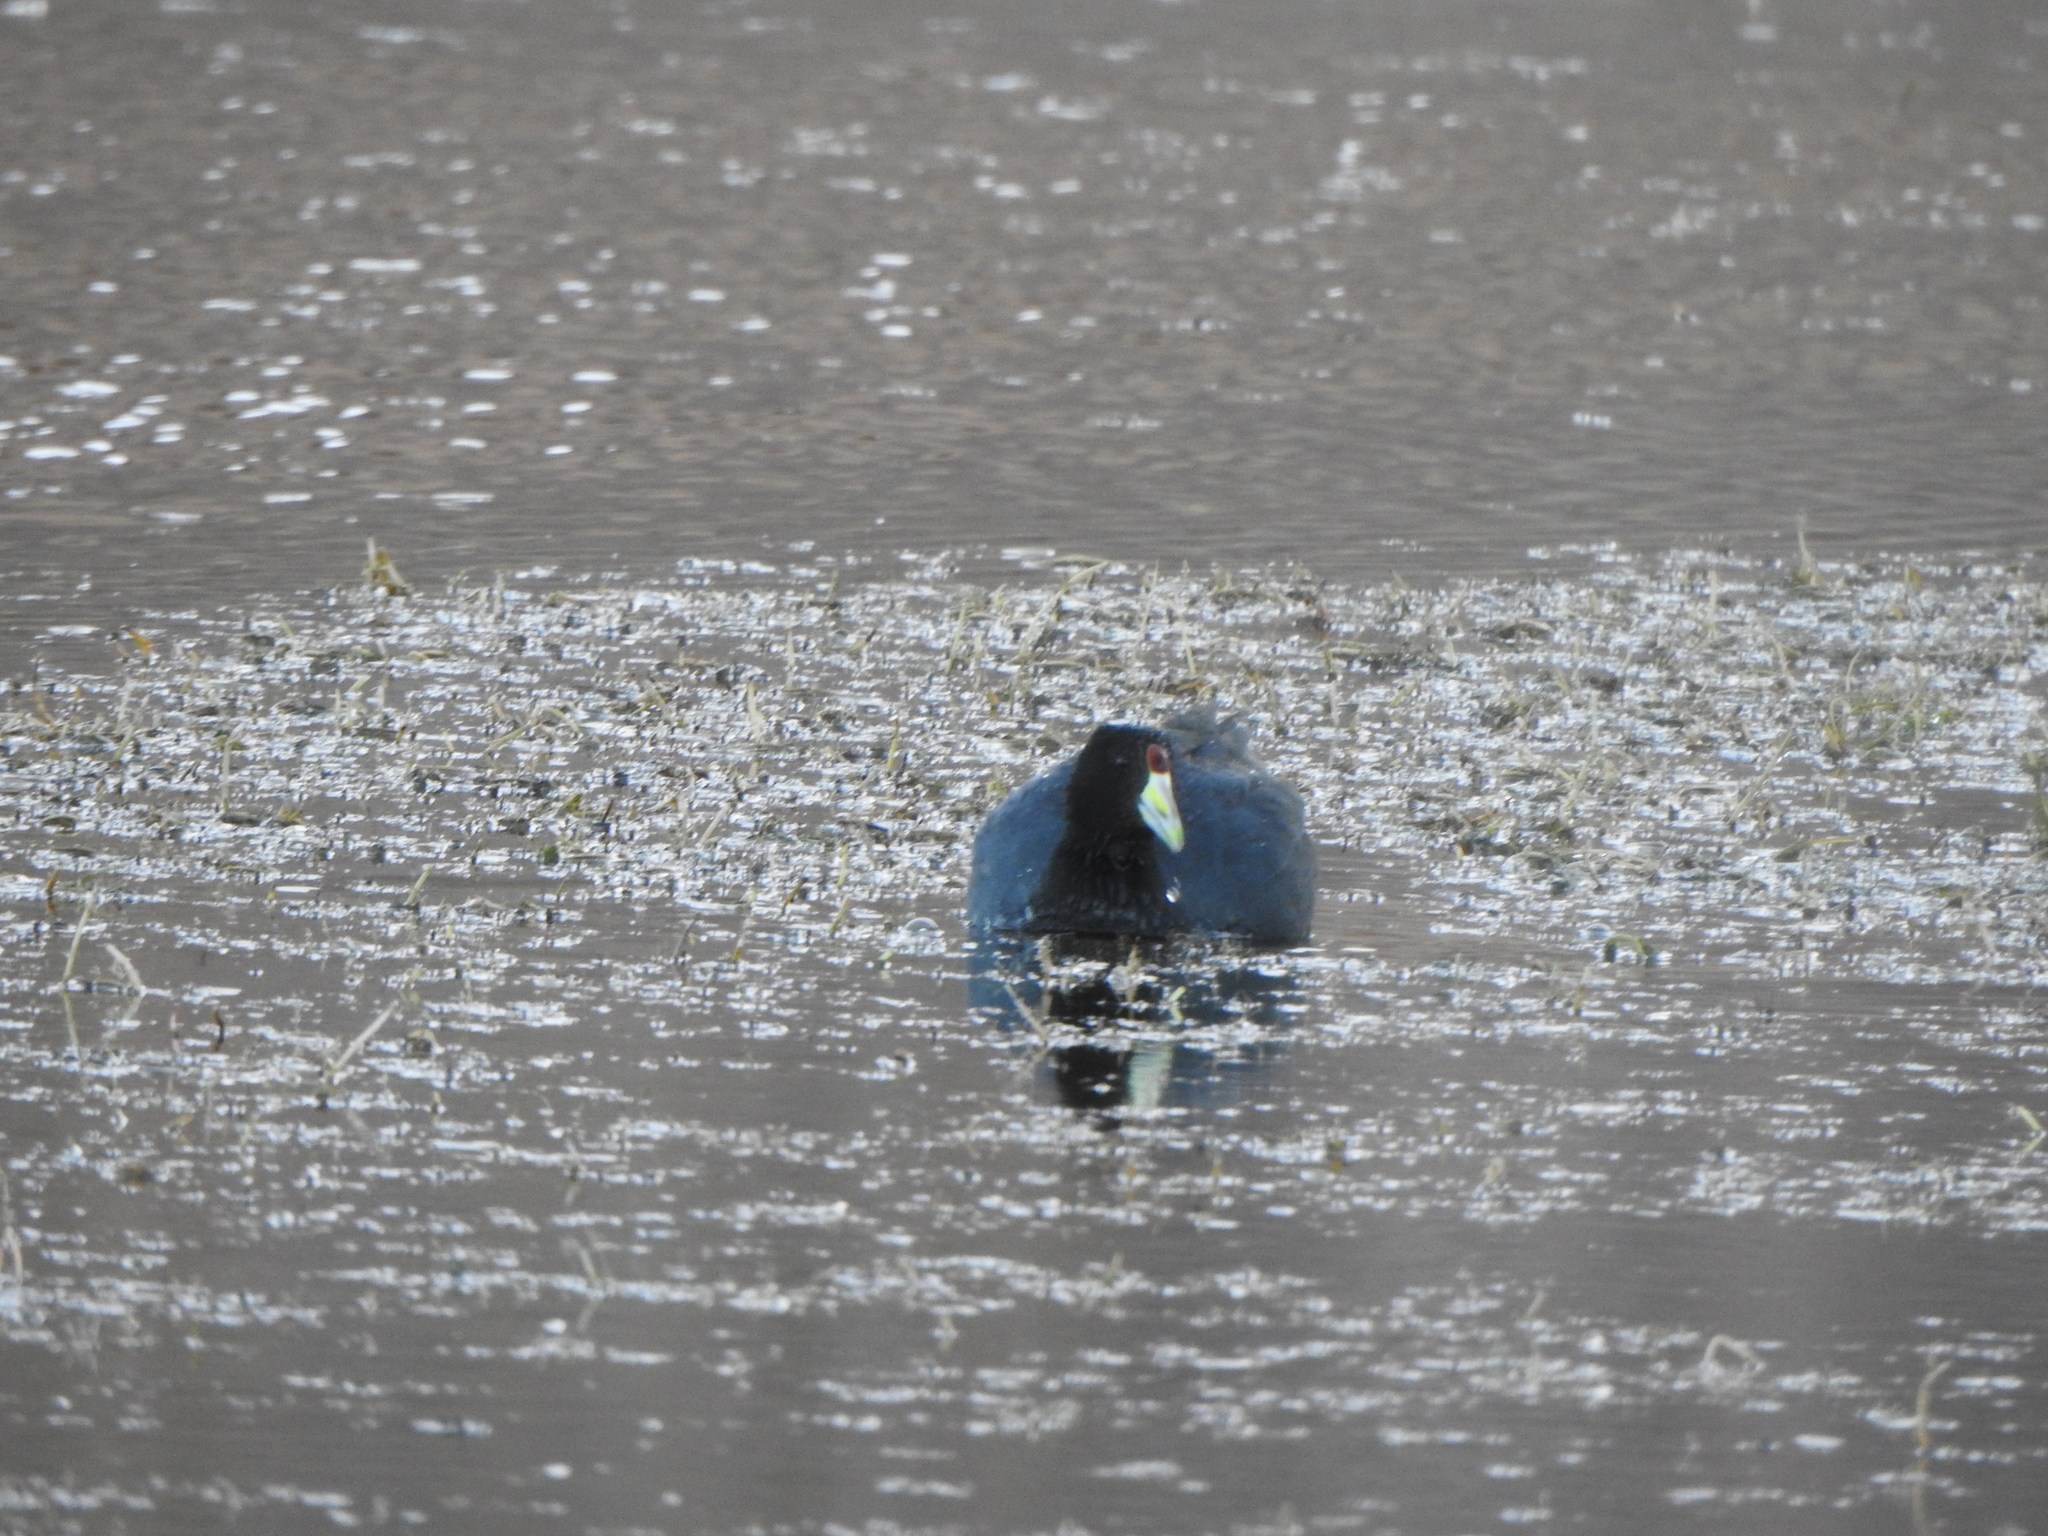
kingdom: Animalia
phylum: Chordata
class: Aves
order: Gruiformes
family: Rallidae
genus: Fulica
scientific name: Fulica ardesiaca
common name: Andean coot
